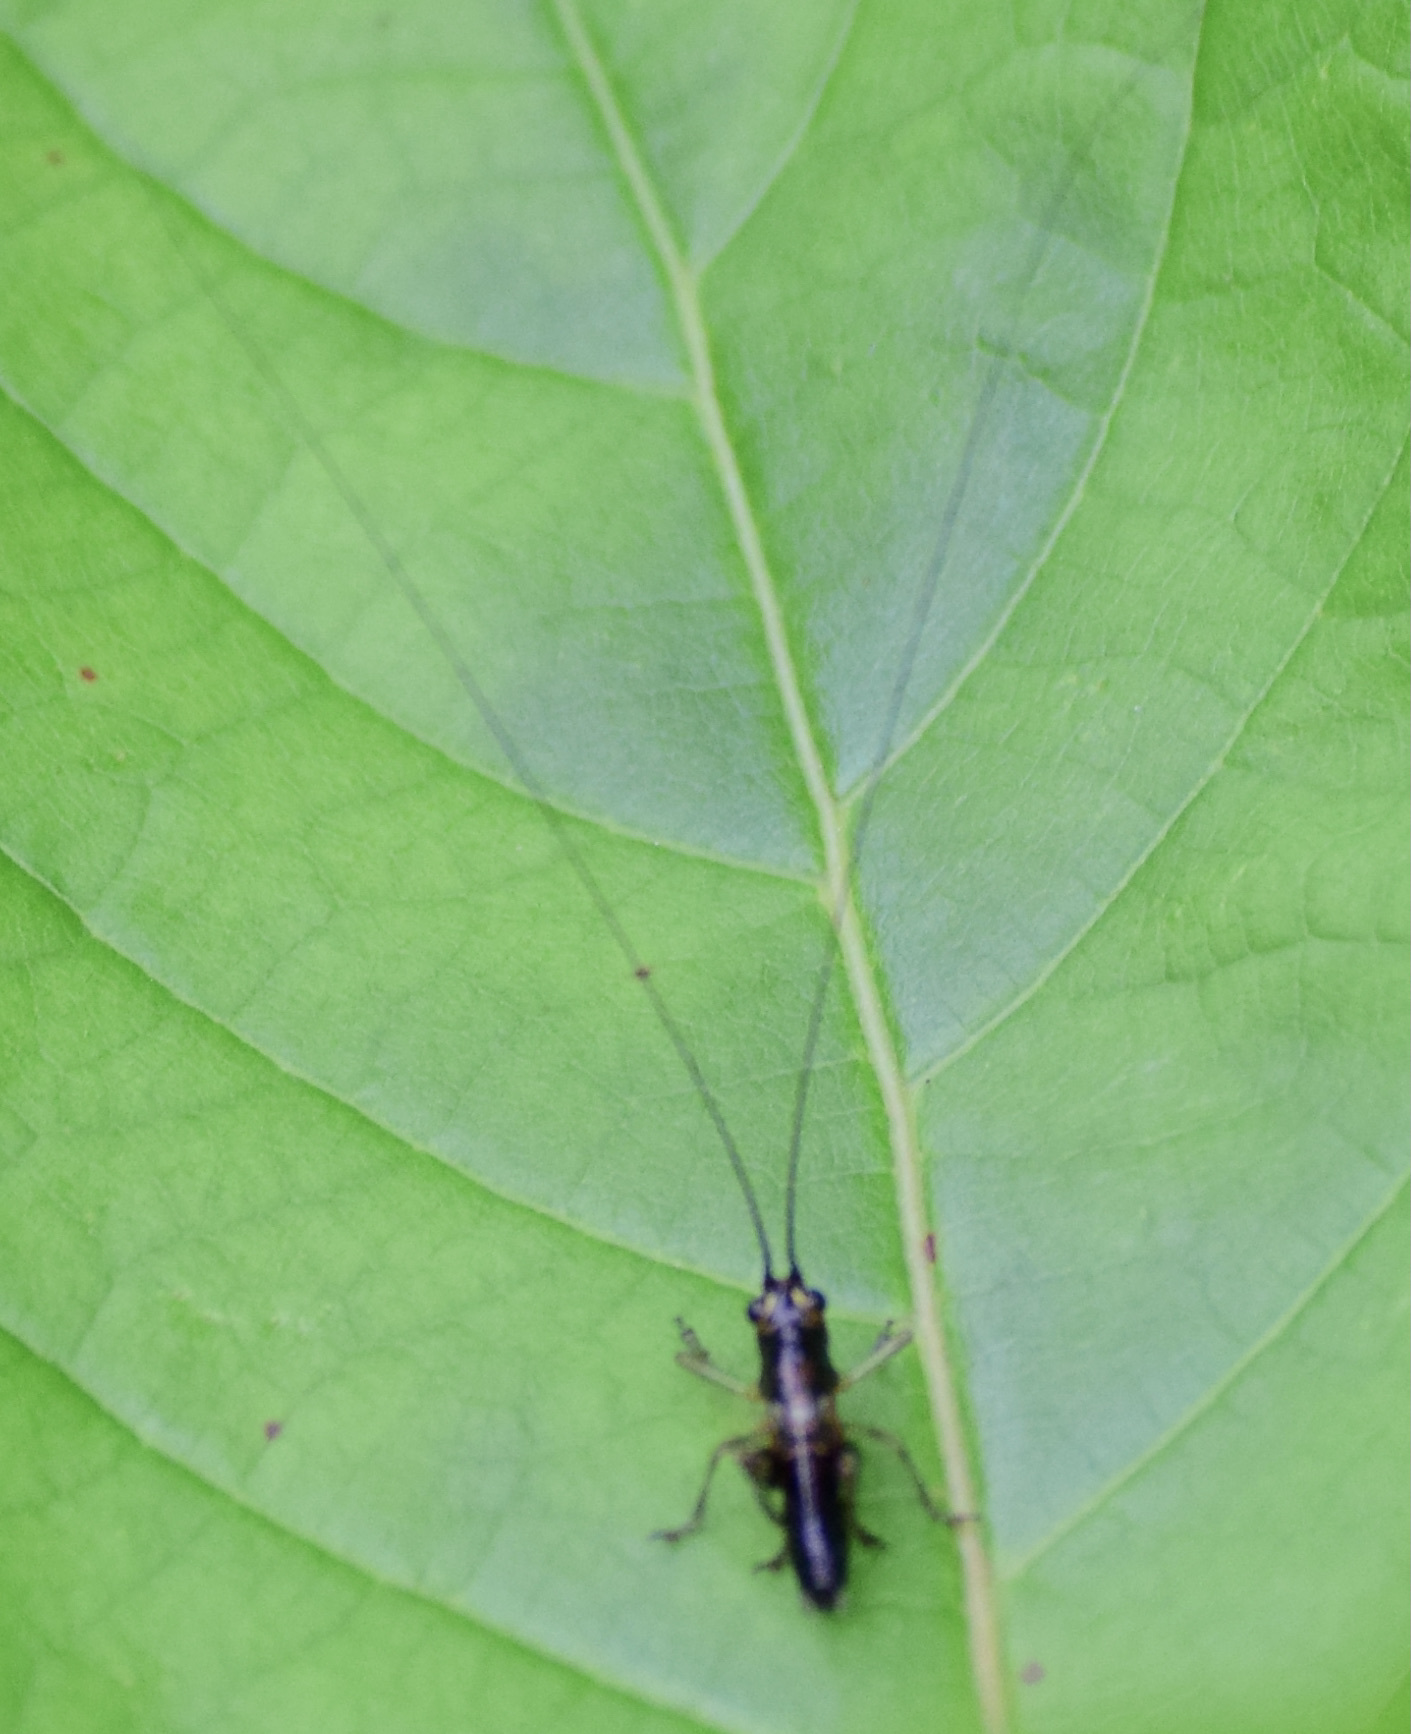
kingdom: Animalia
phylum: Arthropoda
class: Insecta
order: Orthoptera
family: Tettigoniidae
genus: Conocephalus
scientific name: Conocephalus nigropleurum
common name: Black-sided meadow katydid
